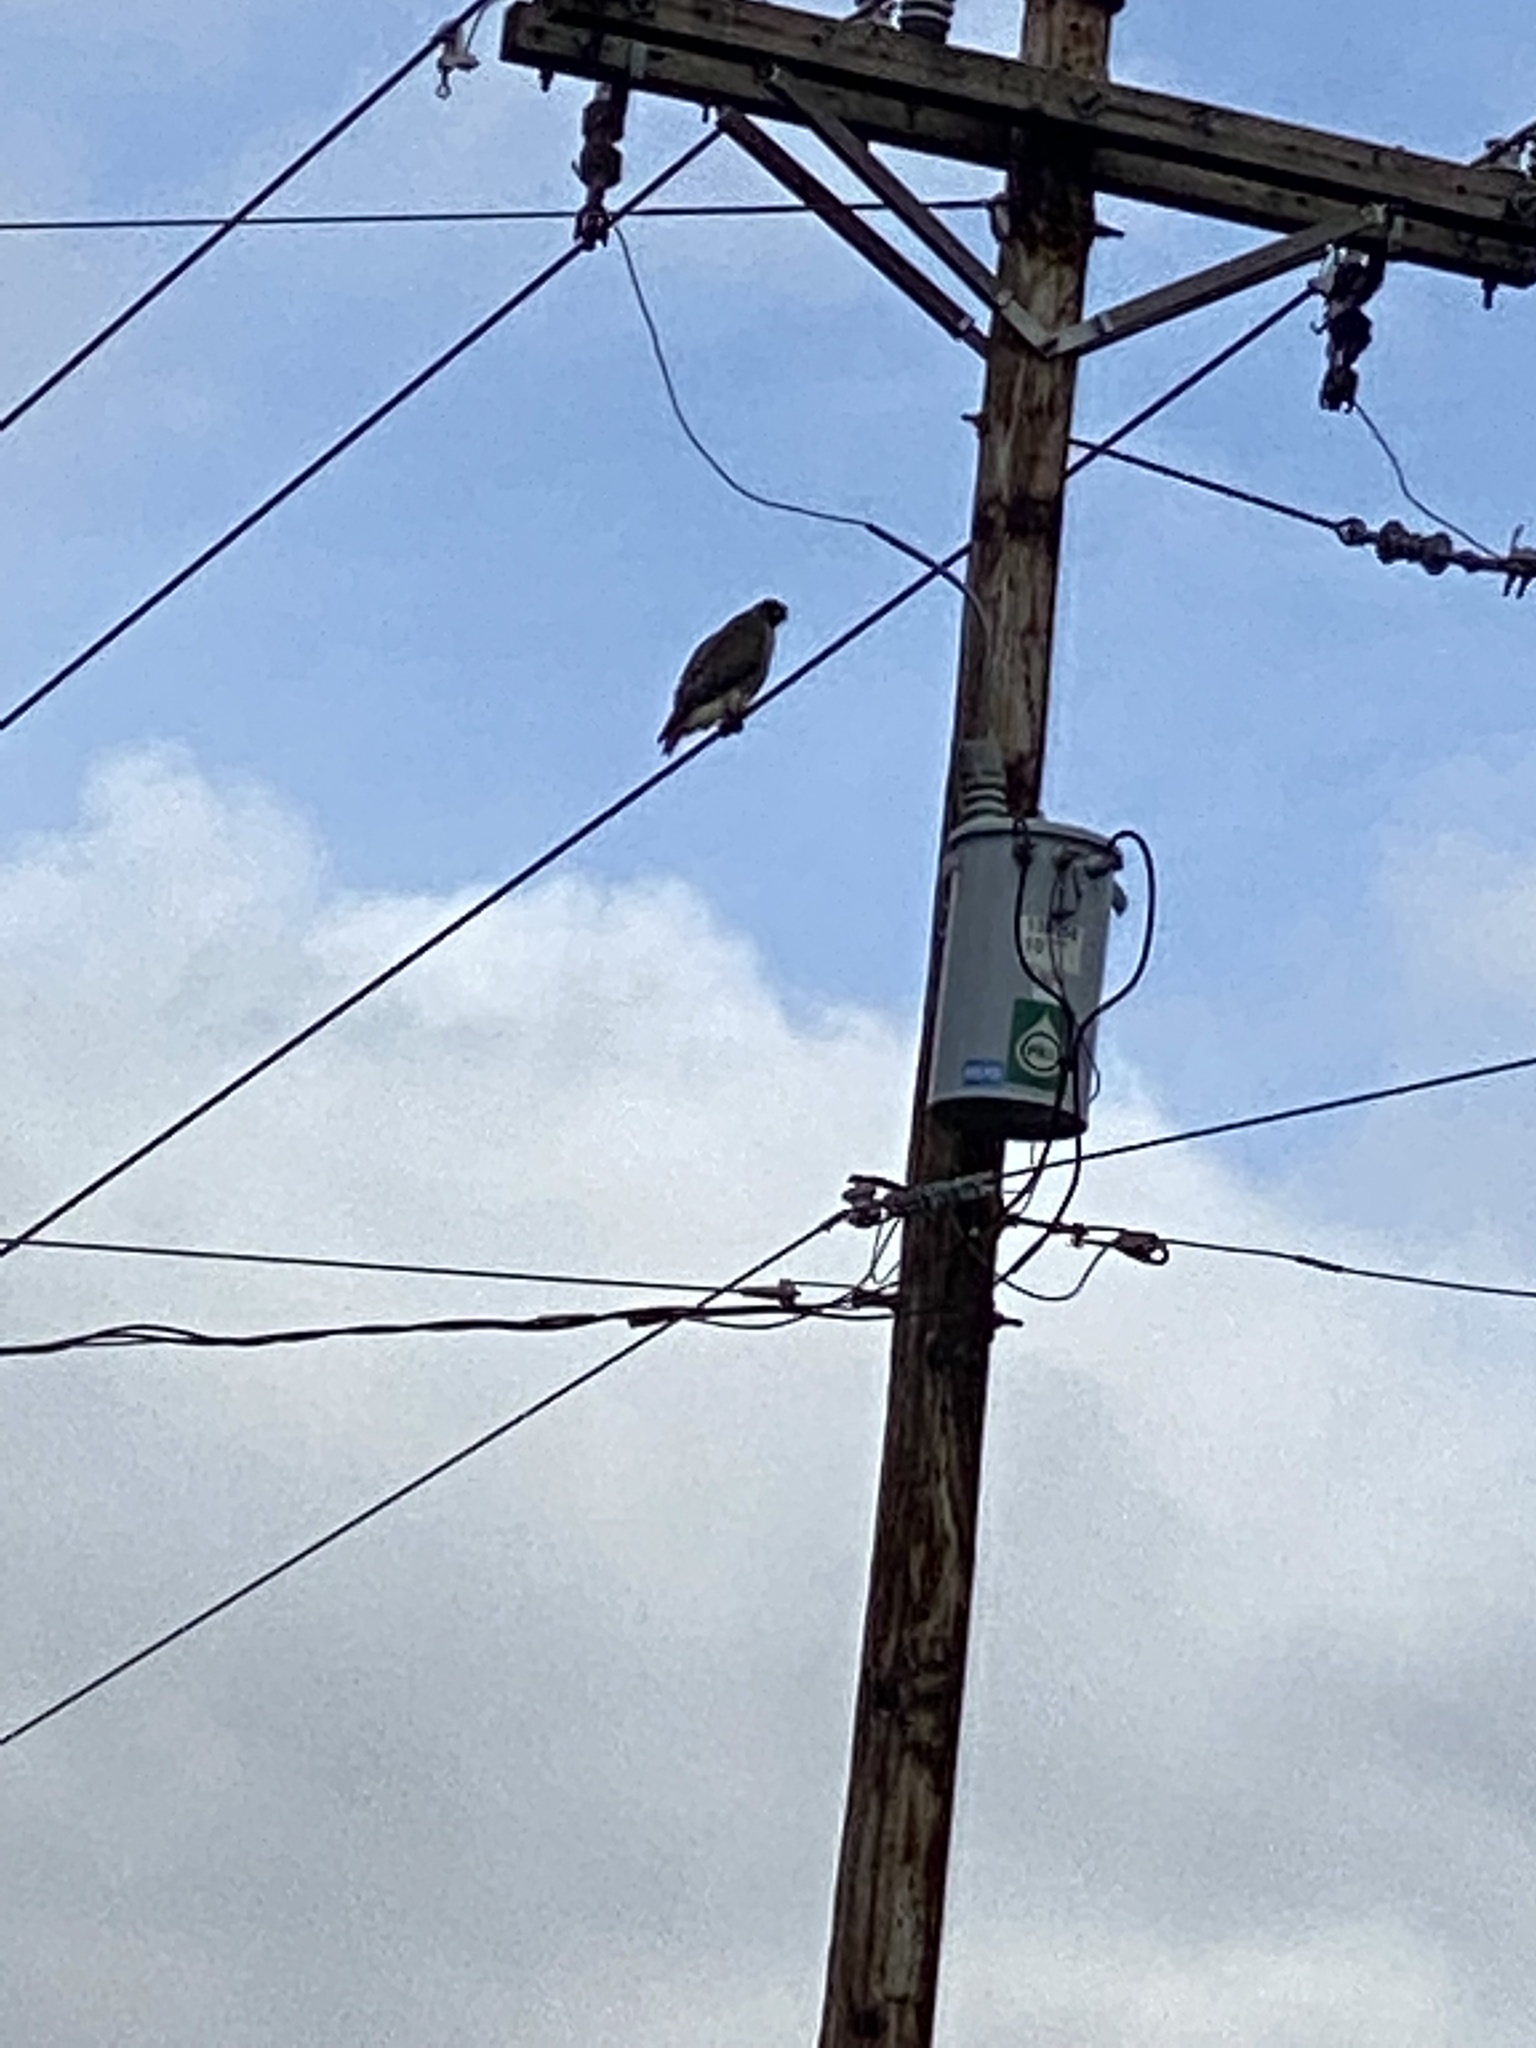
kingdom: Animalia
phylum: Chordata
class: Aves
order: Accipitriformes
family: Accipitridae
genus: Buteo
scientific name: Buteo jamaicensis
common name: Red-tailed hawk
